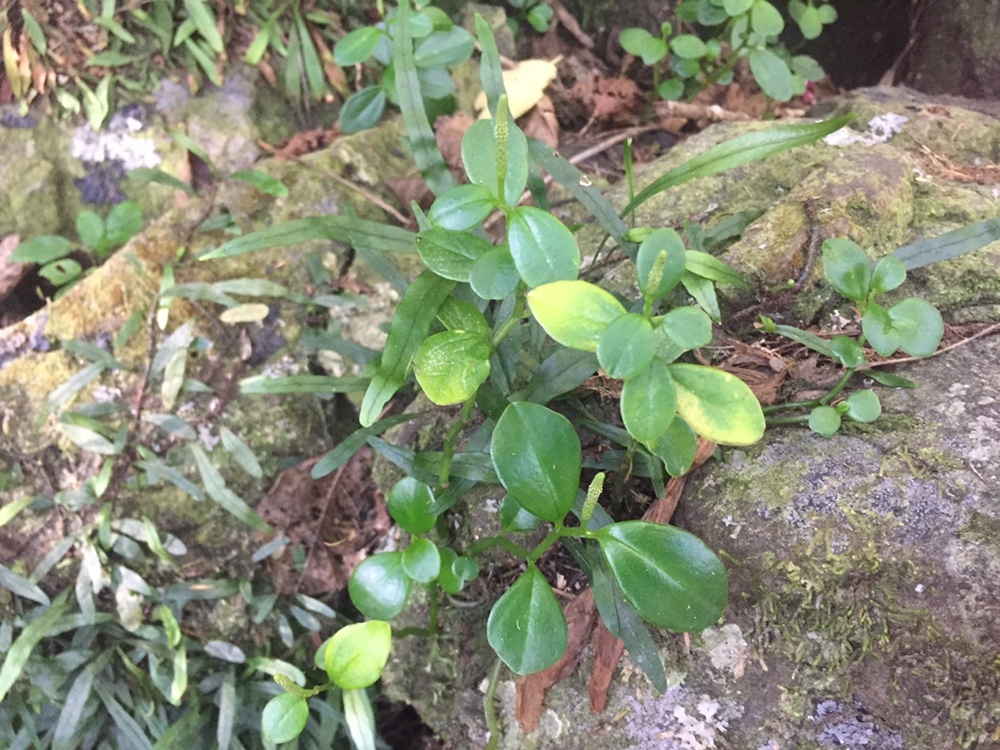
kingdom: Plantae
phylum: Tracheophyta
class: Magnoliopsida
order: Piperales
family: Piperaceae
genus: Peperomia
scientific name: Peperomia urvilleana
